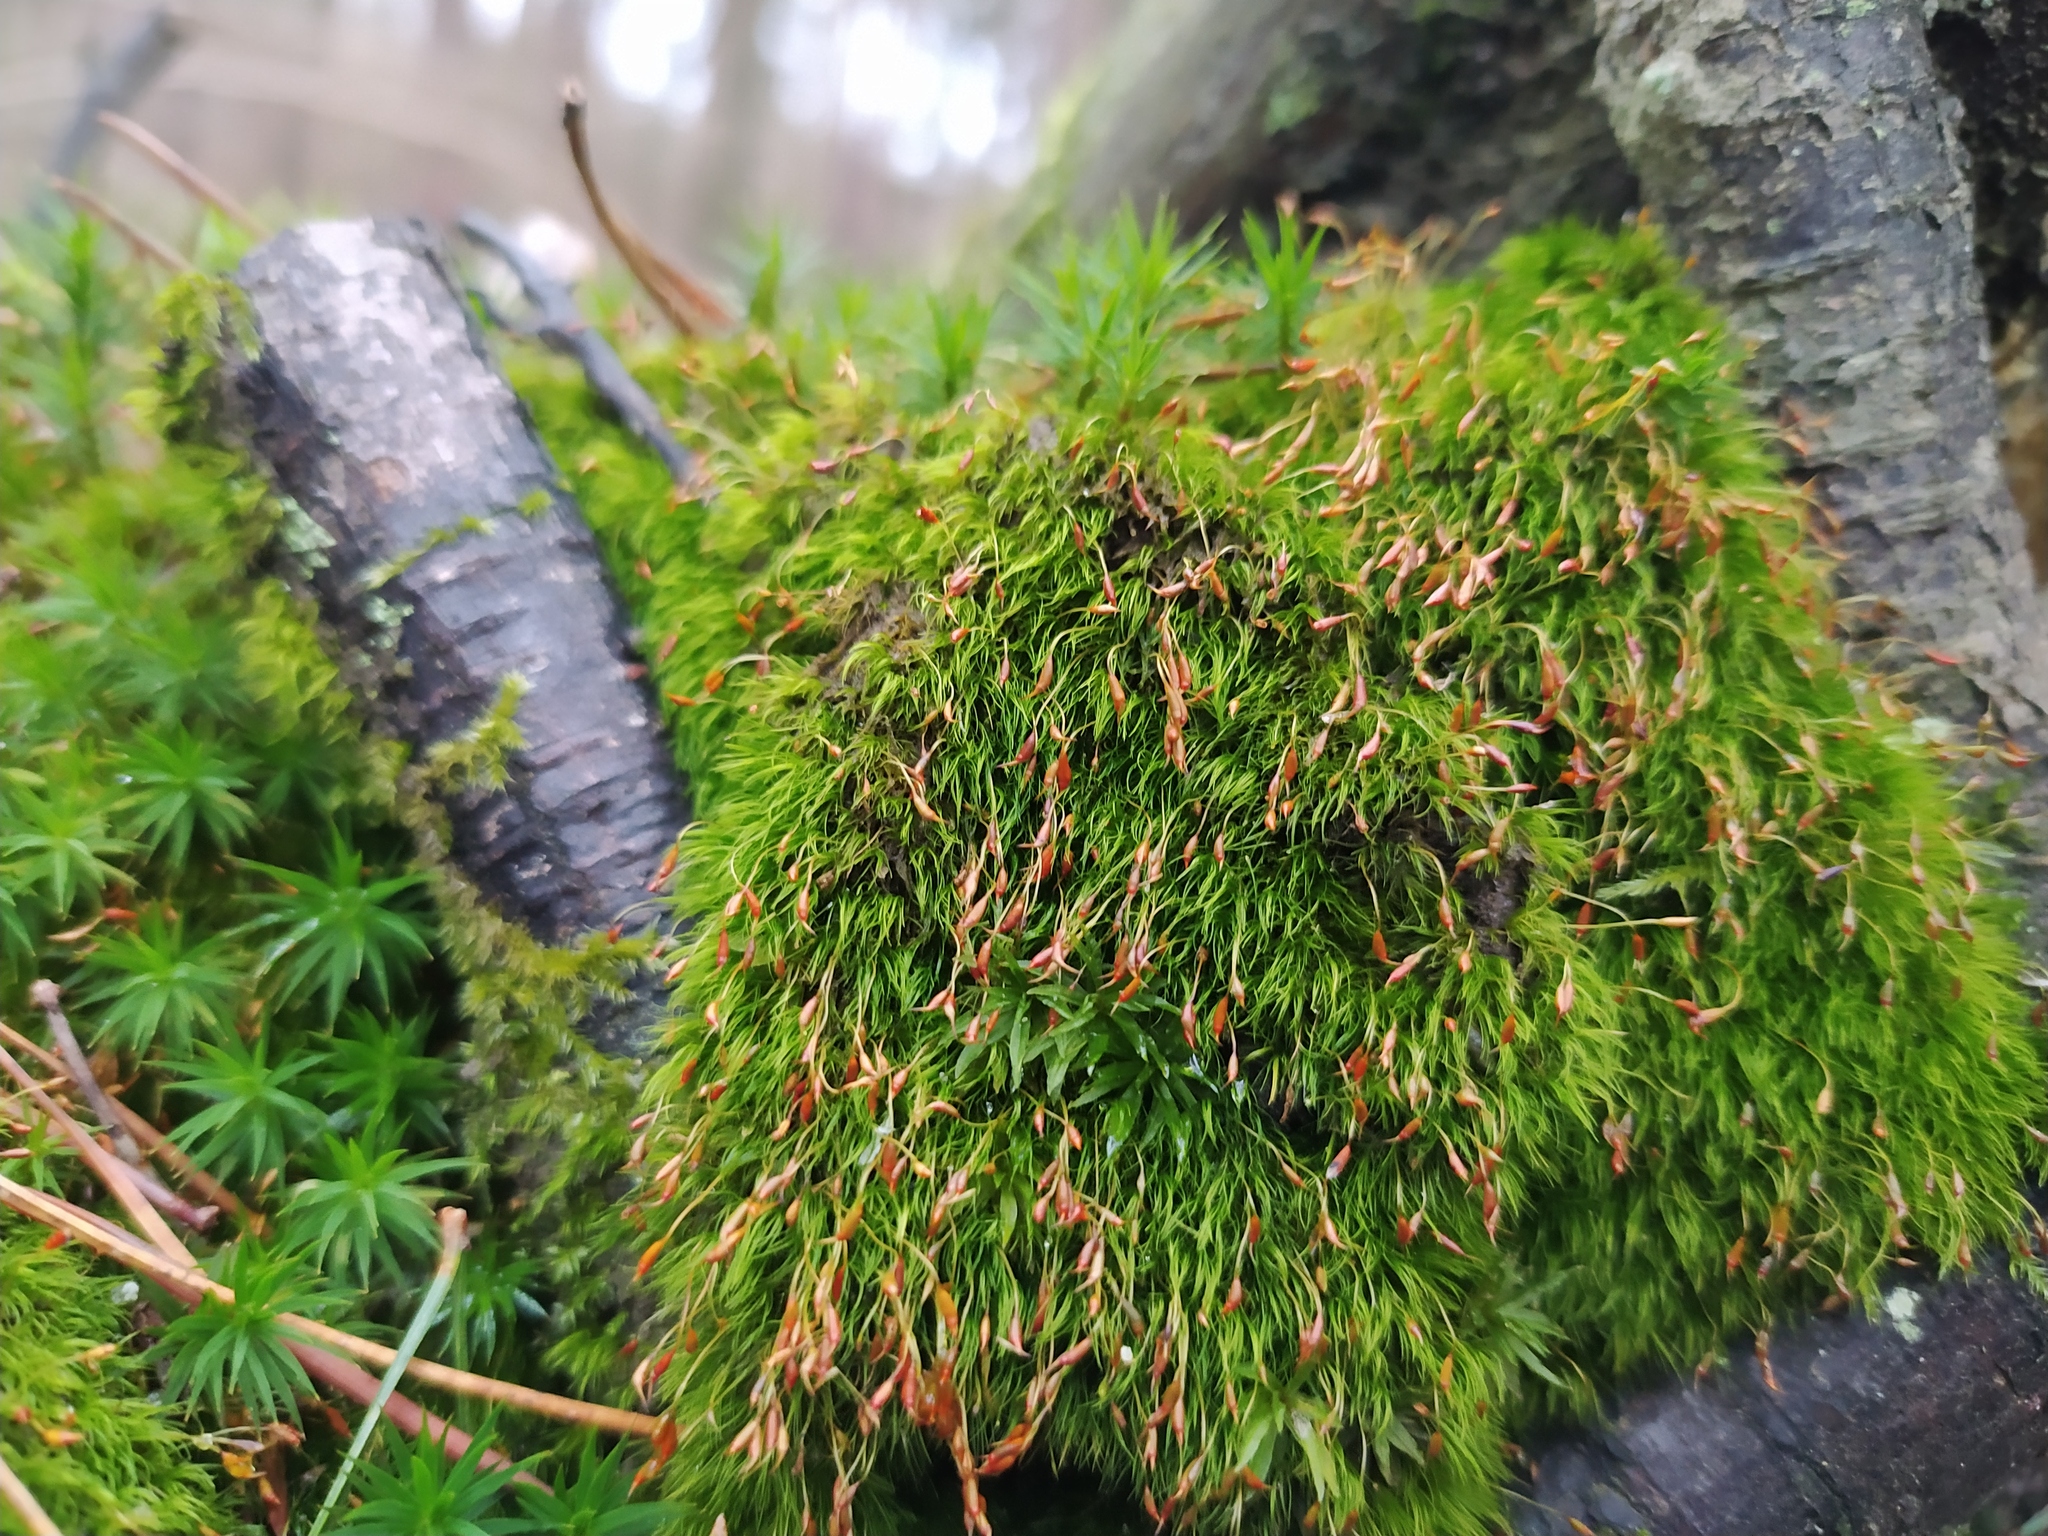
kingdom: Plantae
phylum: Bryophyta
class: Bryopsida
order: Dicranales
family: Dicranellaceae
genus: Dicranella
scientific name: Dicranella heteromalla
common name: Silky forklet moss
